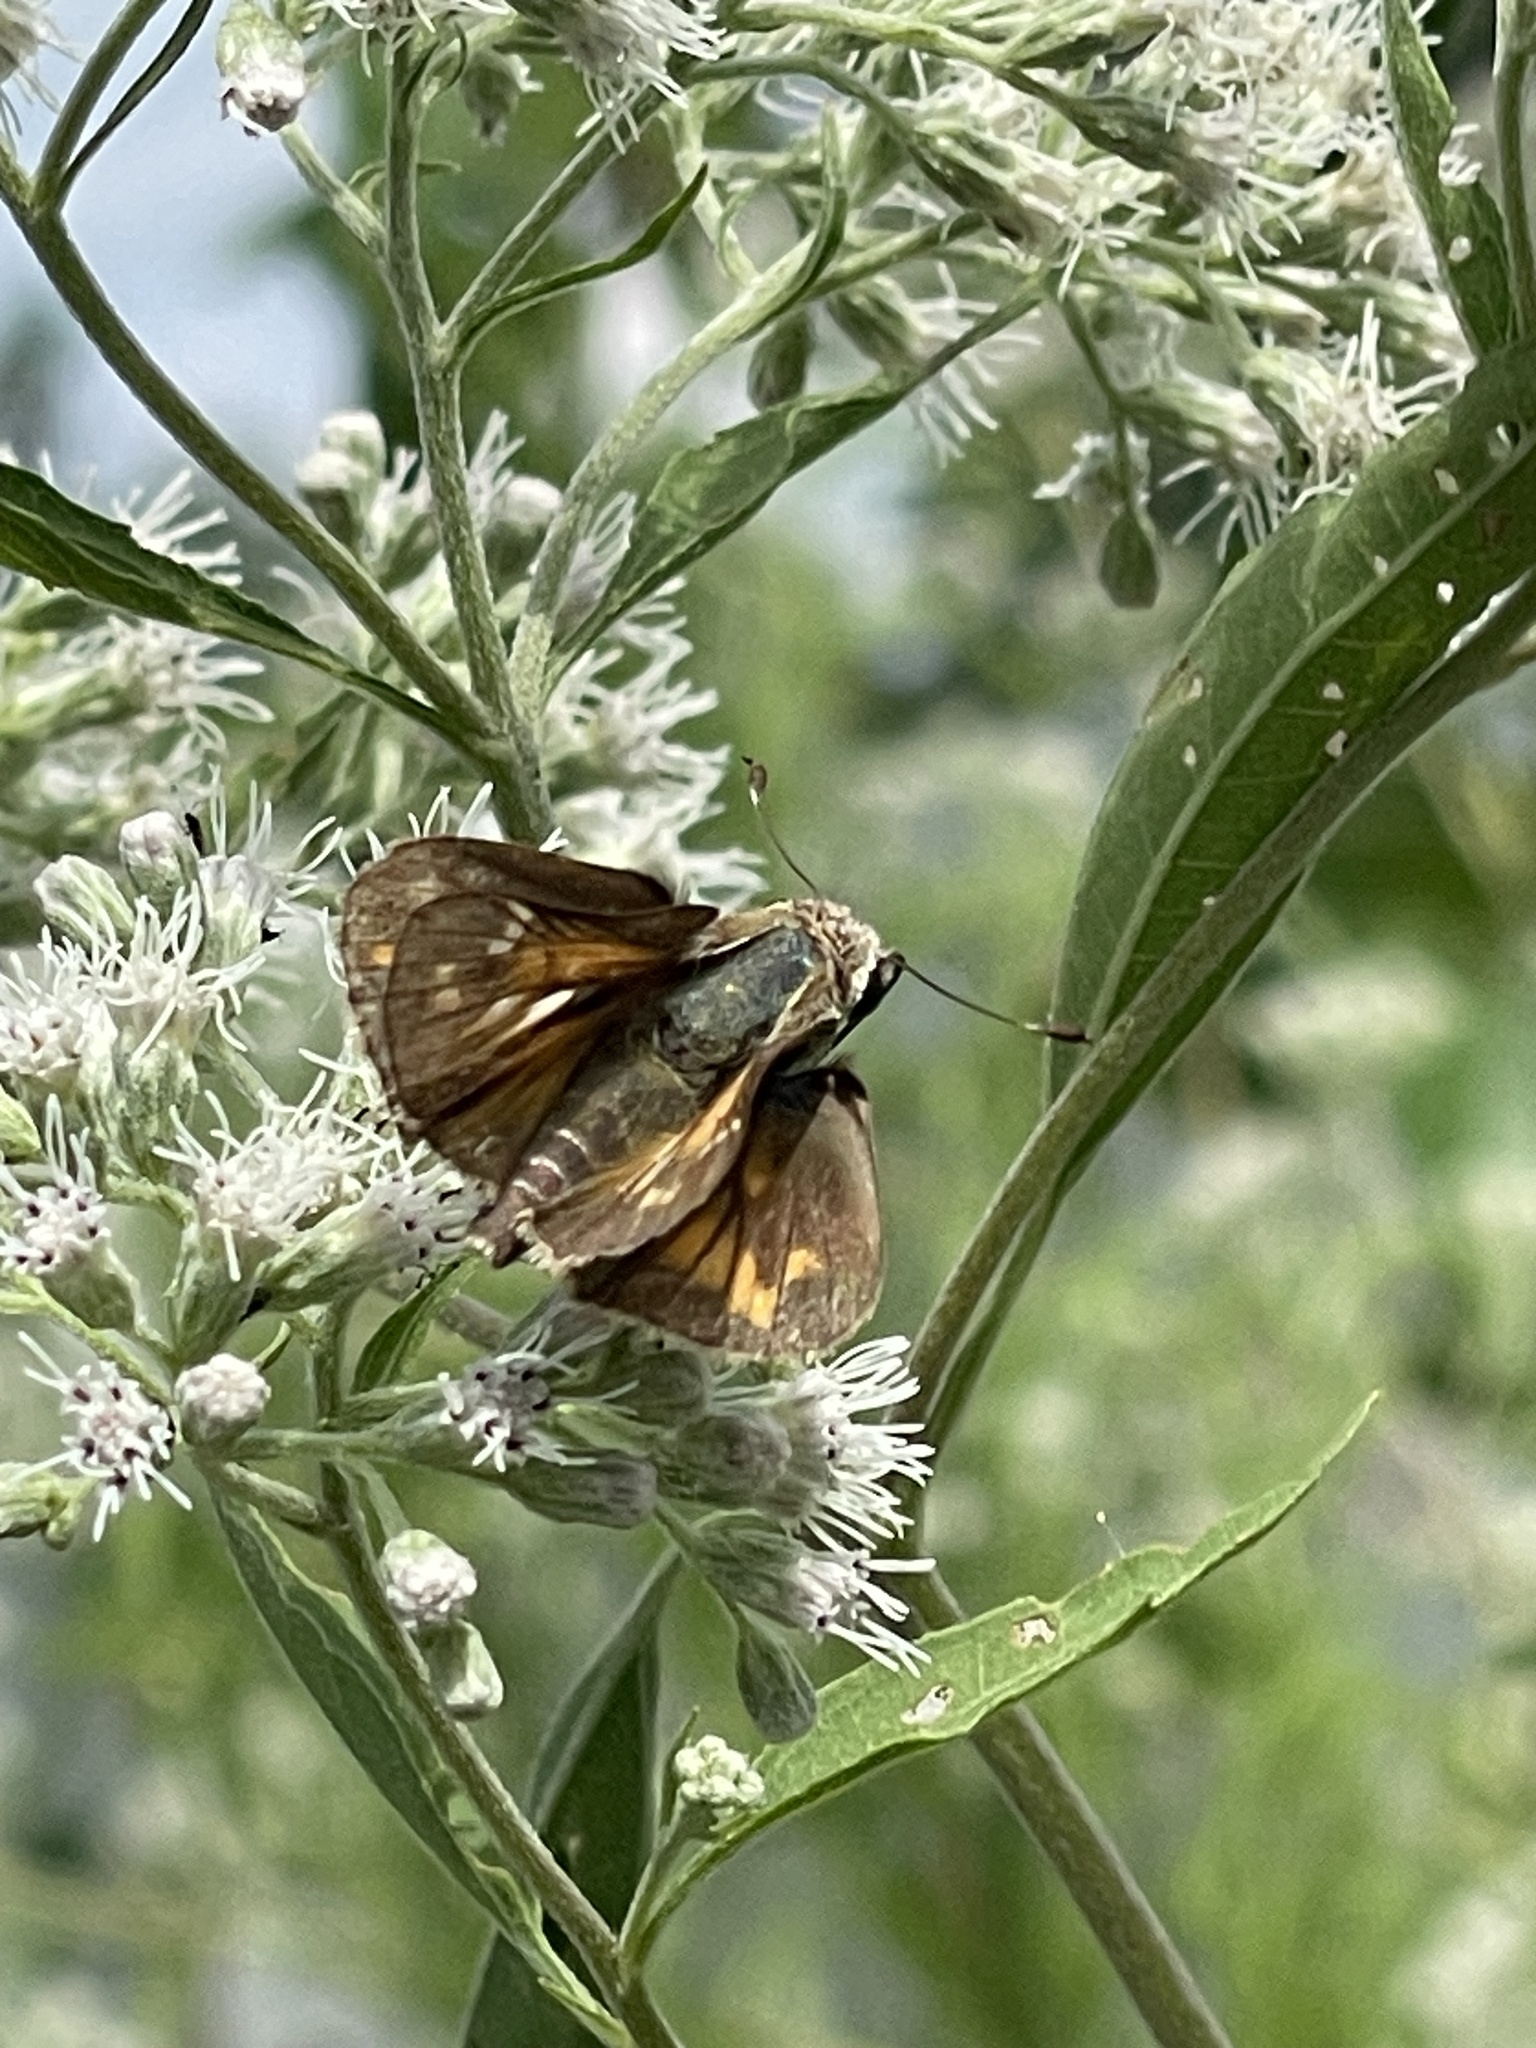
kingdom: Animalia
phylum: Arthropoda
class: Insecta
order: Lepidoptera
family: Hesperiidae
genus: Atalopedes
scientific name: Atalopedes
